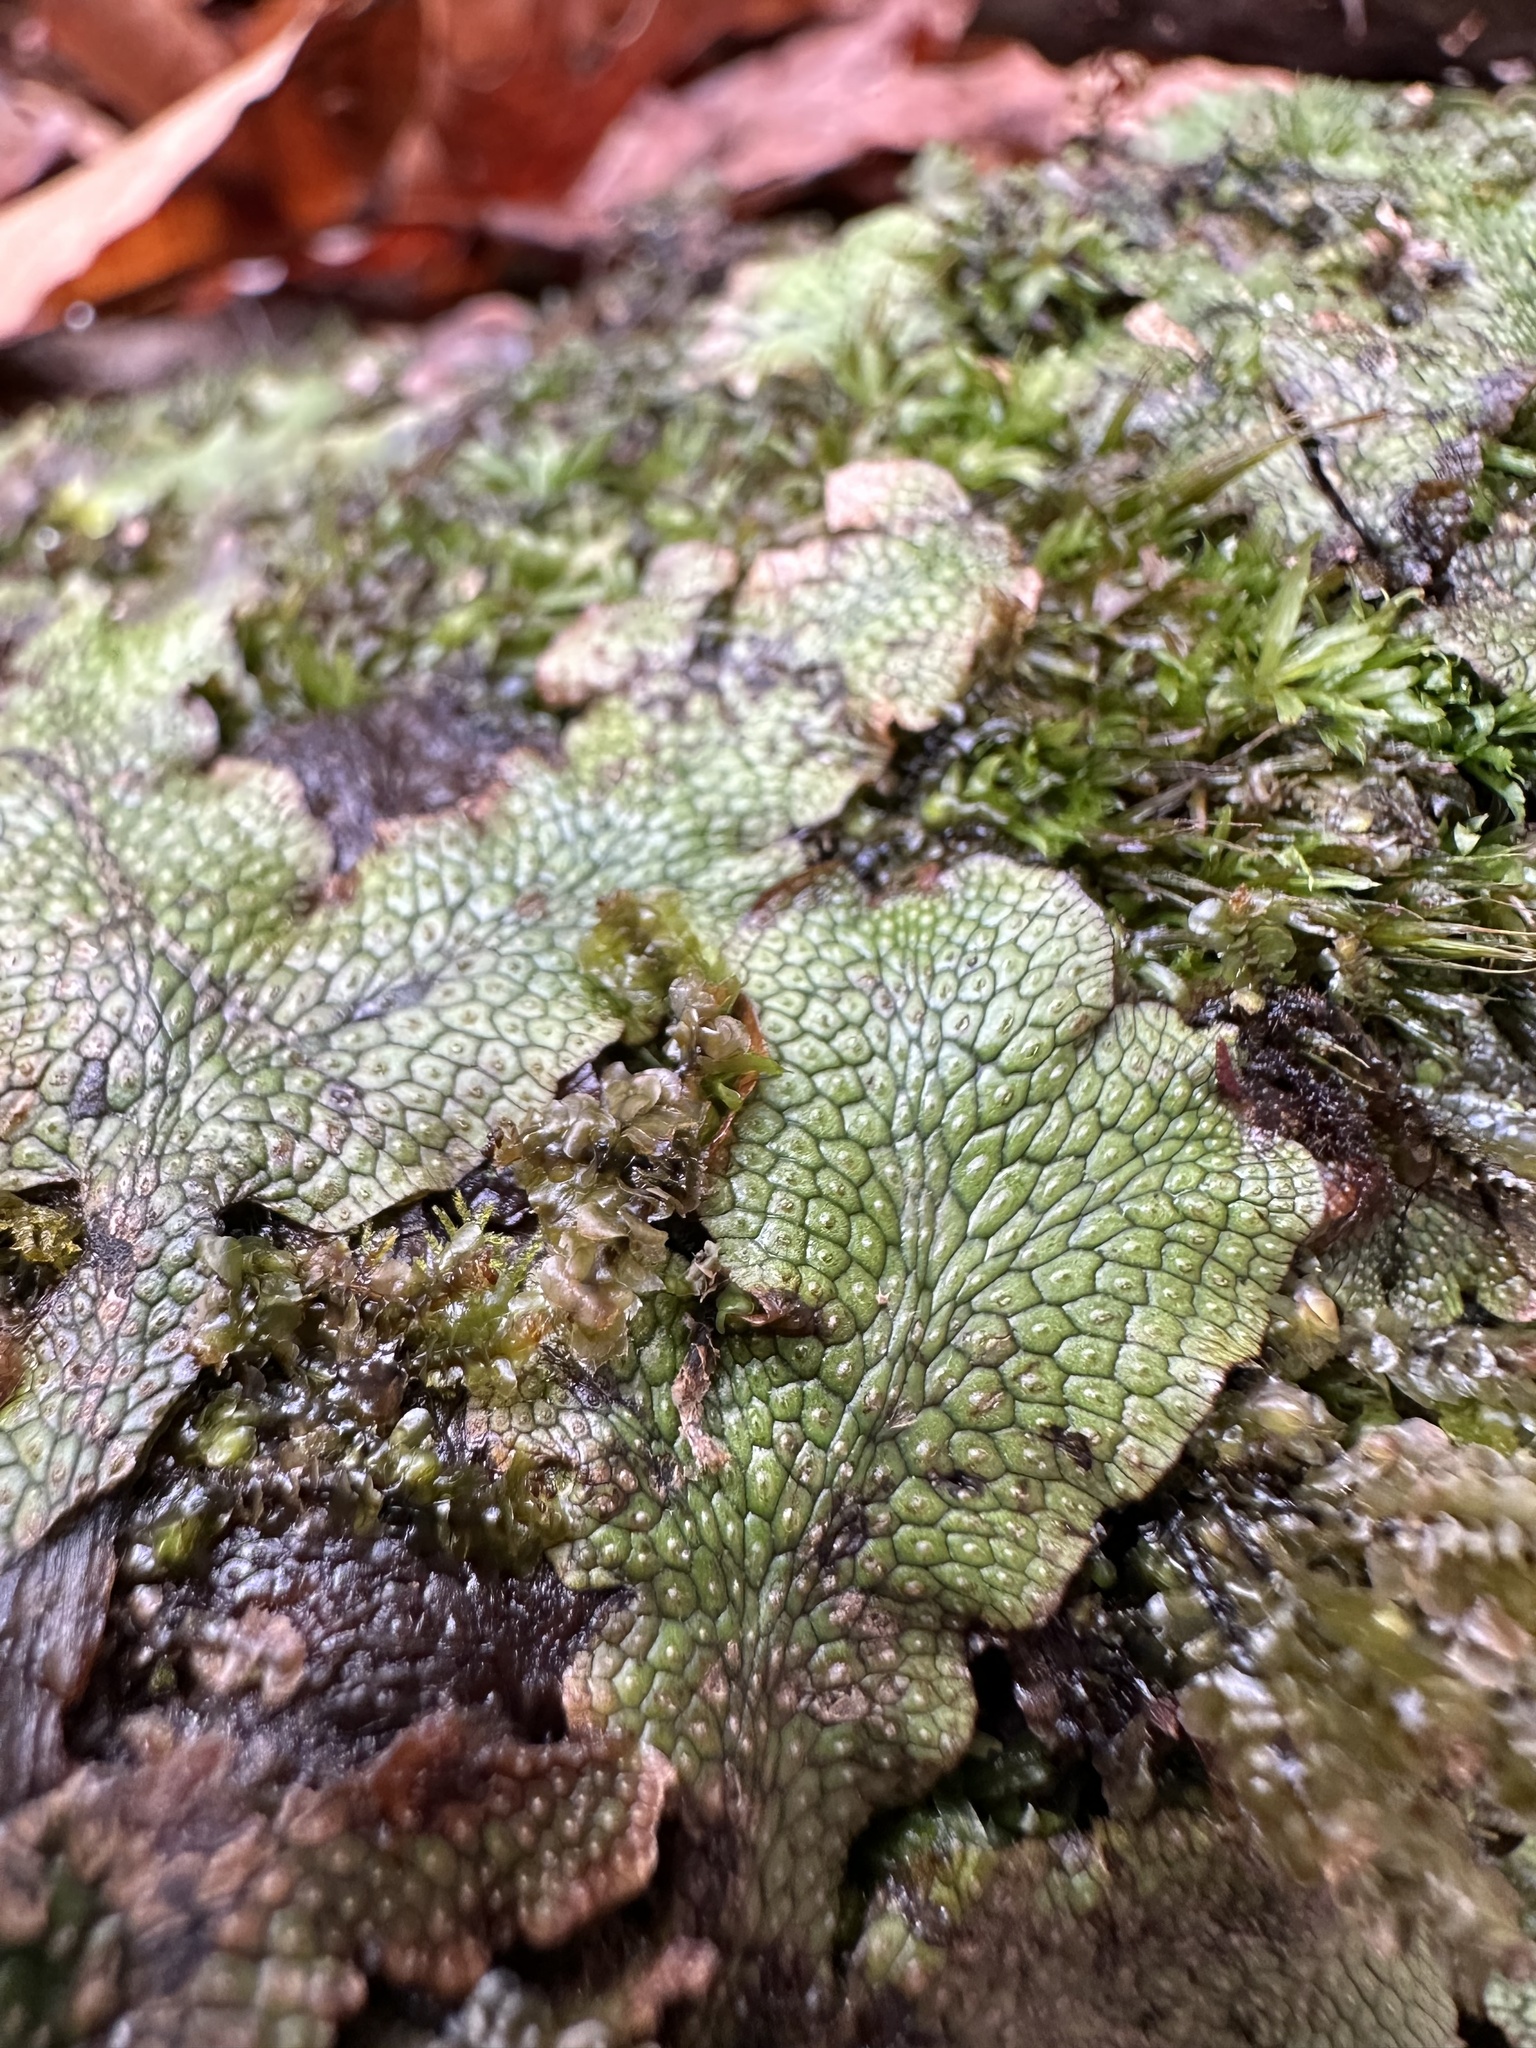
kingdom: Plantae
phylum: Marchantiophyta
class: Marchantiopsida
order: Marchantiales
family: Conocephalaceae
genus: Conocephalum
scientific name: Conocephalum salebrosum
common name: Cat-tongue liverwort
